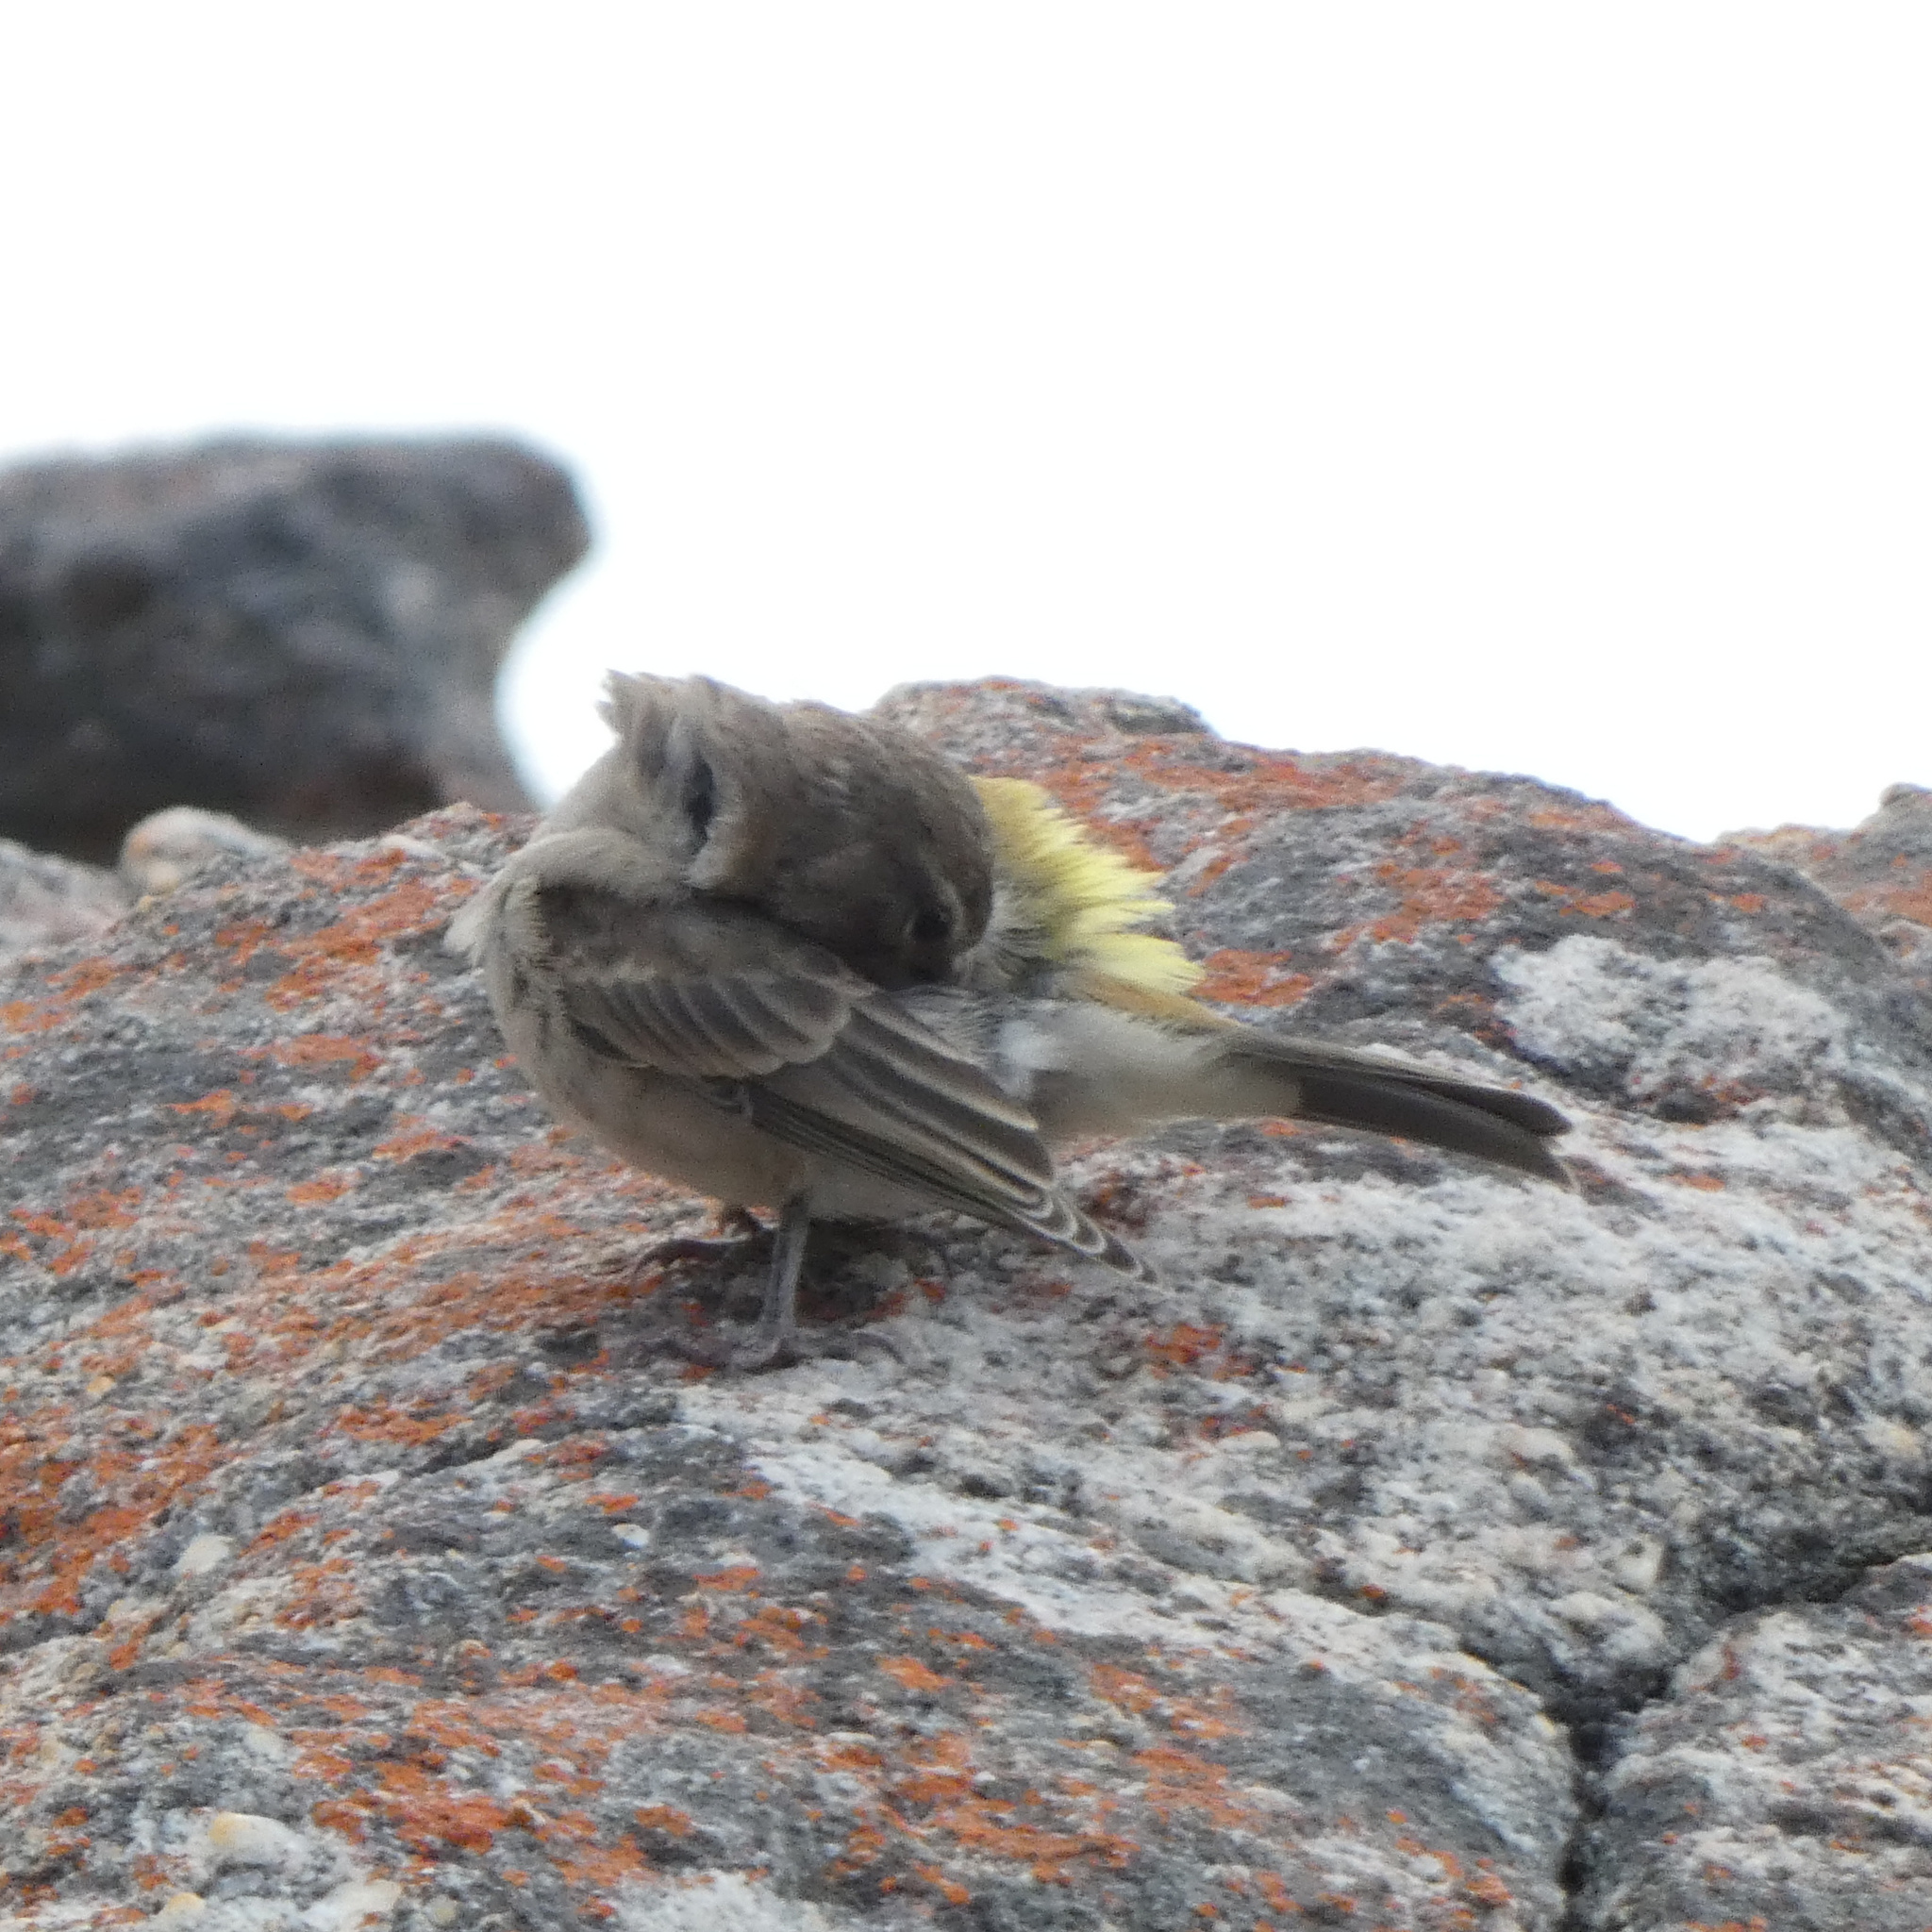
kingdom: Animalia
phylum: Chordata
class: Aves
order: Passeriformes
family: Fringillidae
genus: Crithagra
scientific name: Crithagra albogularis
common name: White-throated canary
